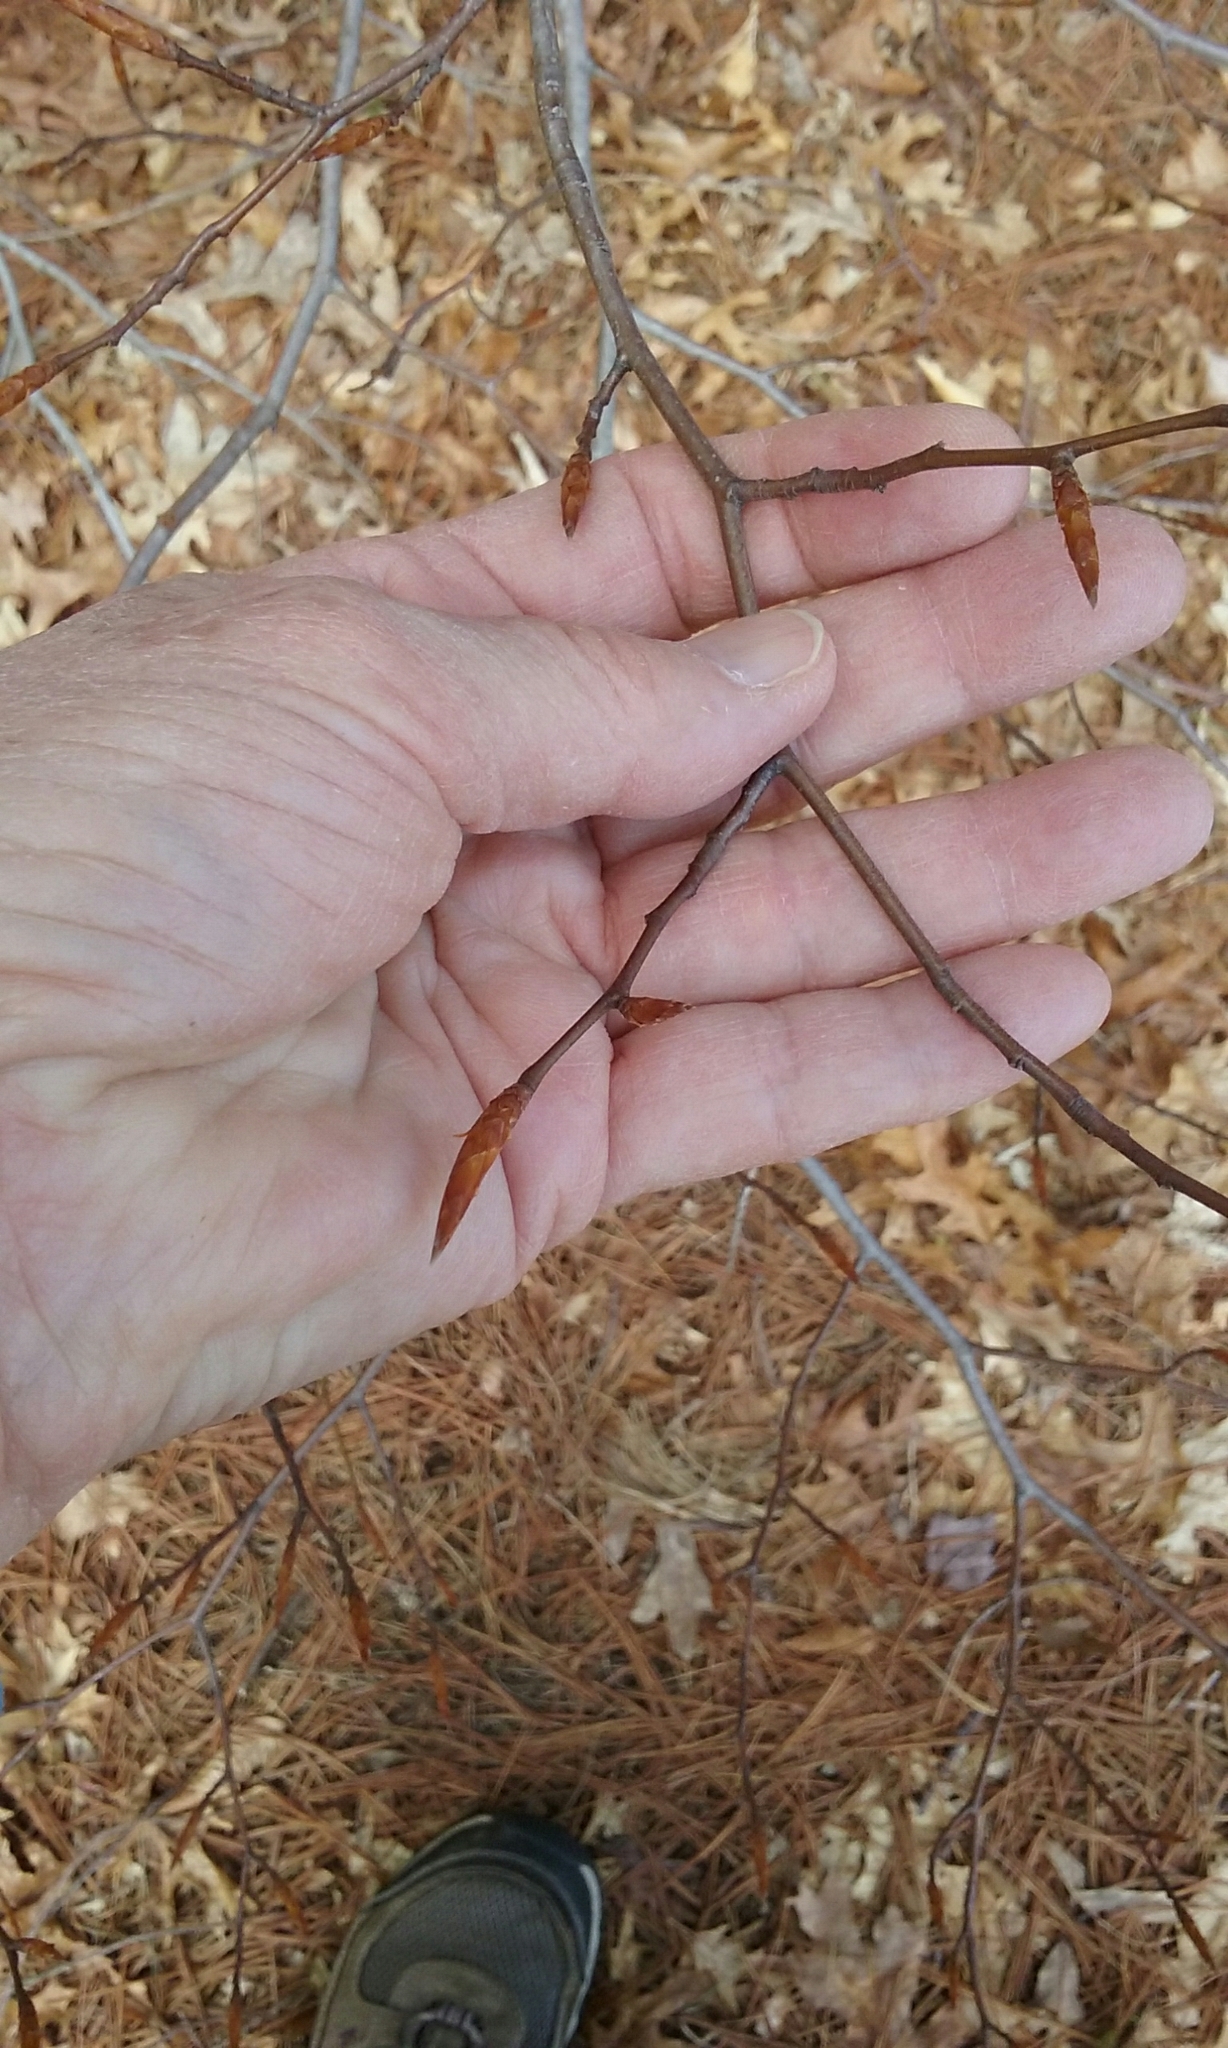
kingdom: Plantae
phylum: Tracheophyta
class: Magnoliopsida
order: Fagales
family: Fagaceae
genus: Fagus
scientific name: Fagus grandifolia
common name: American beech
